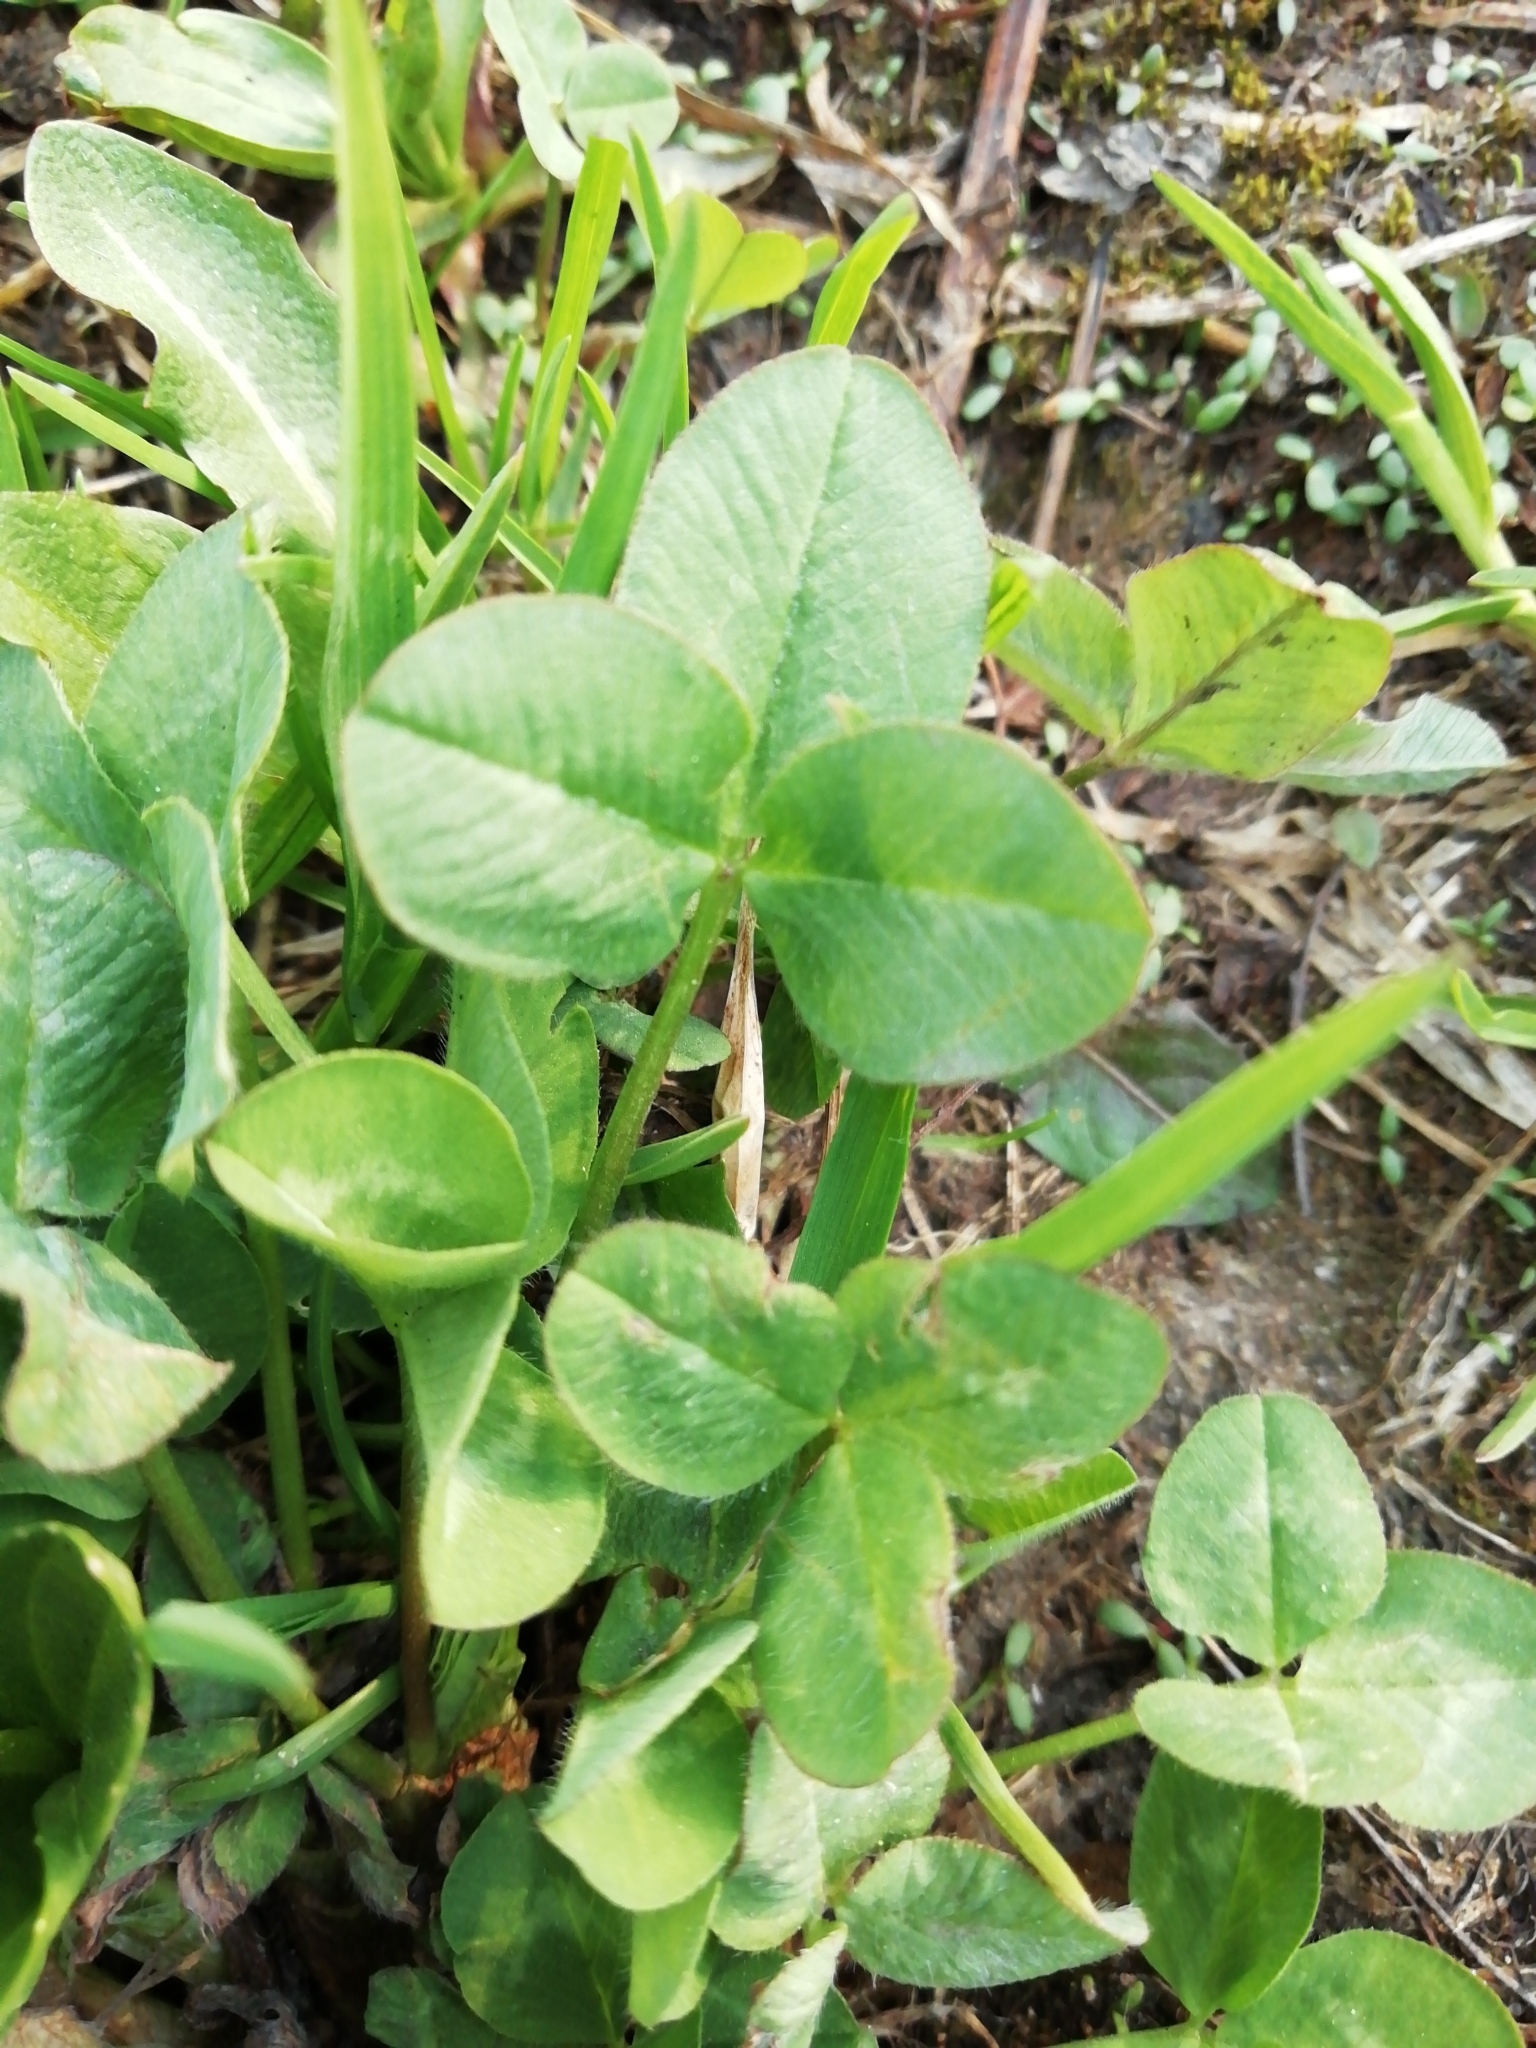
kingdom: Plantae
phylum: Tracheophyta
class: Magnoliopsida
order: Fabales
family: Fabaceae
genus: Trifolium
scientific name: Trifolium pratense
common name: Red clover
